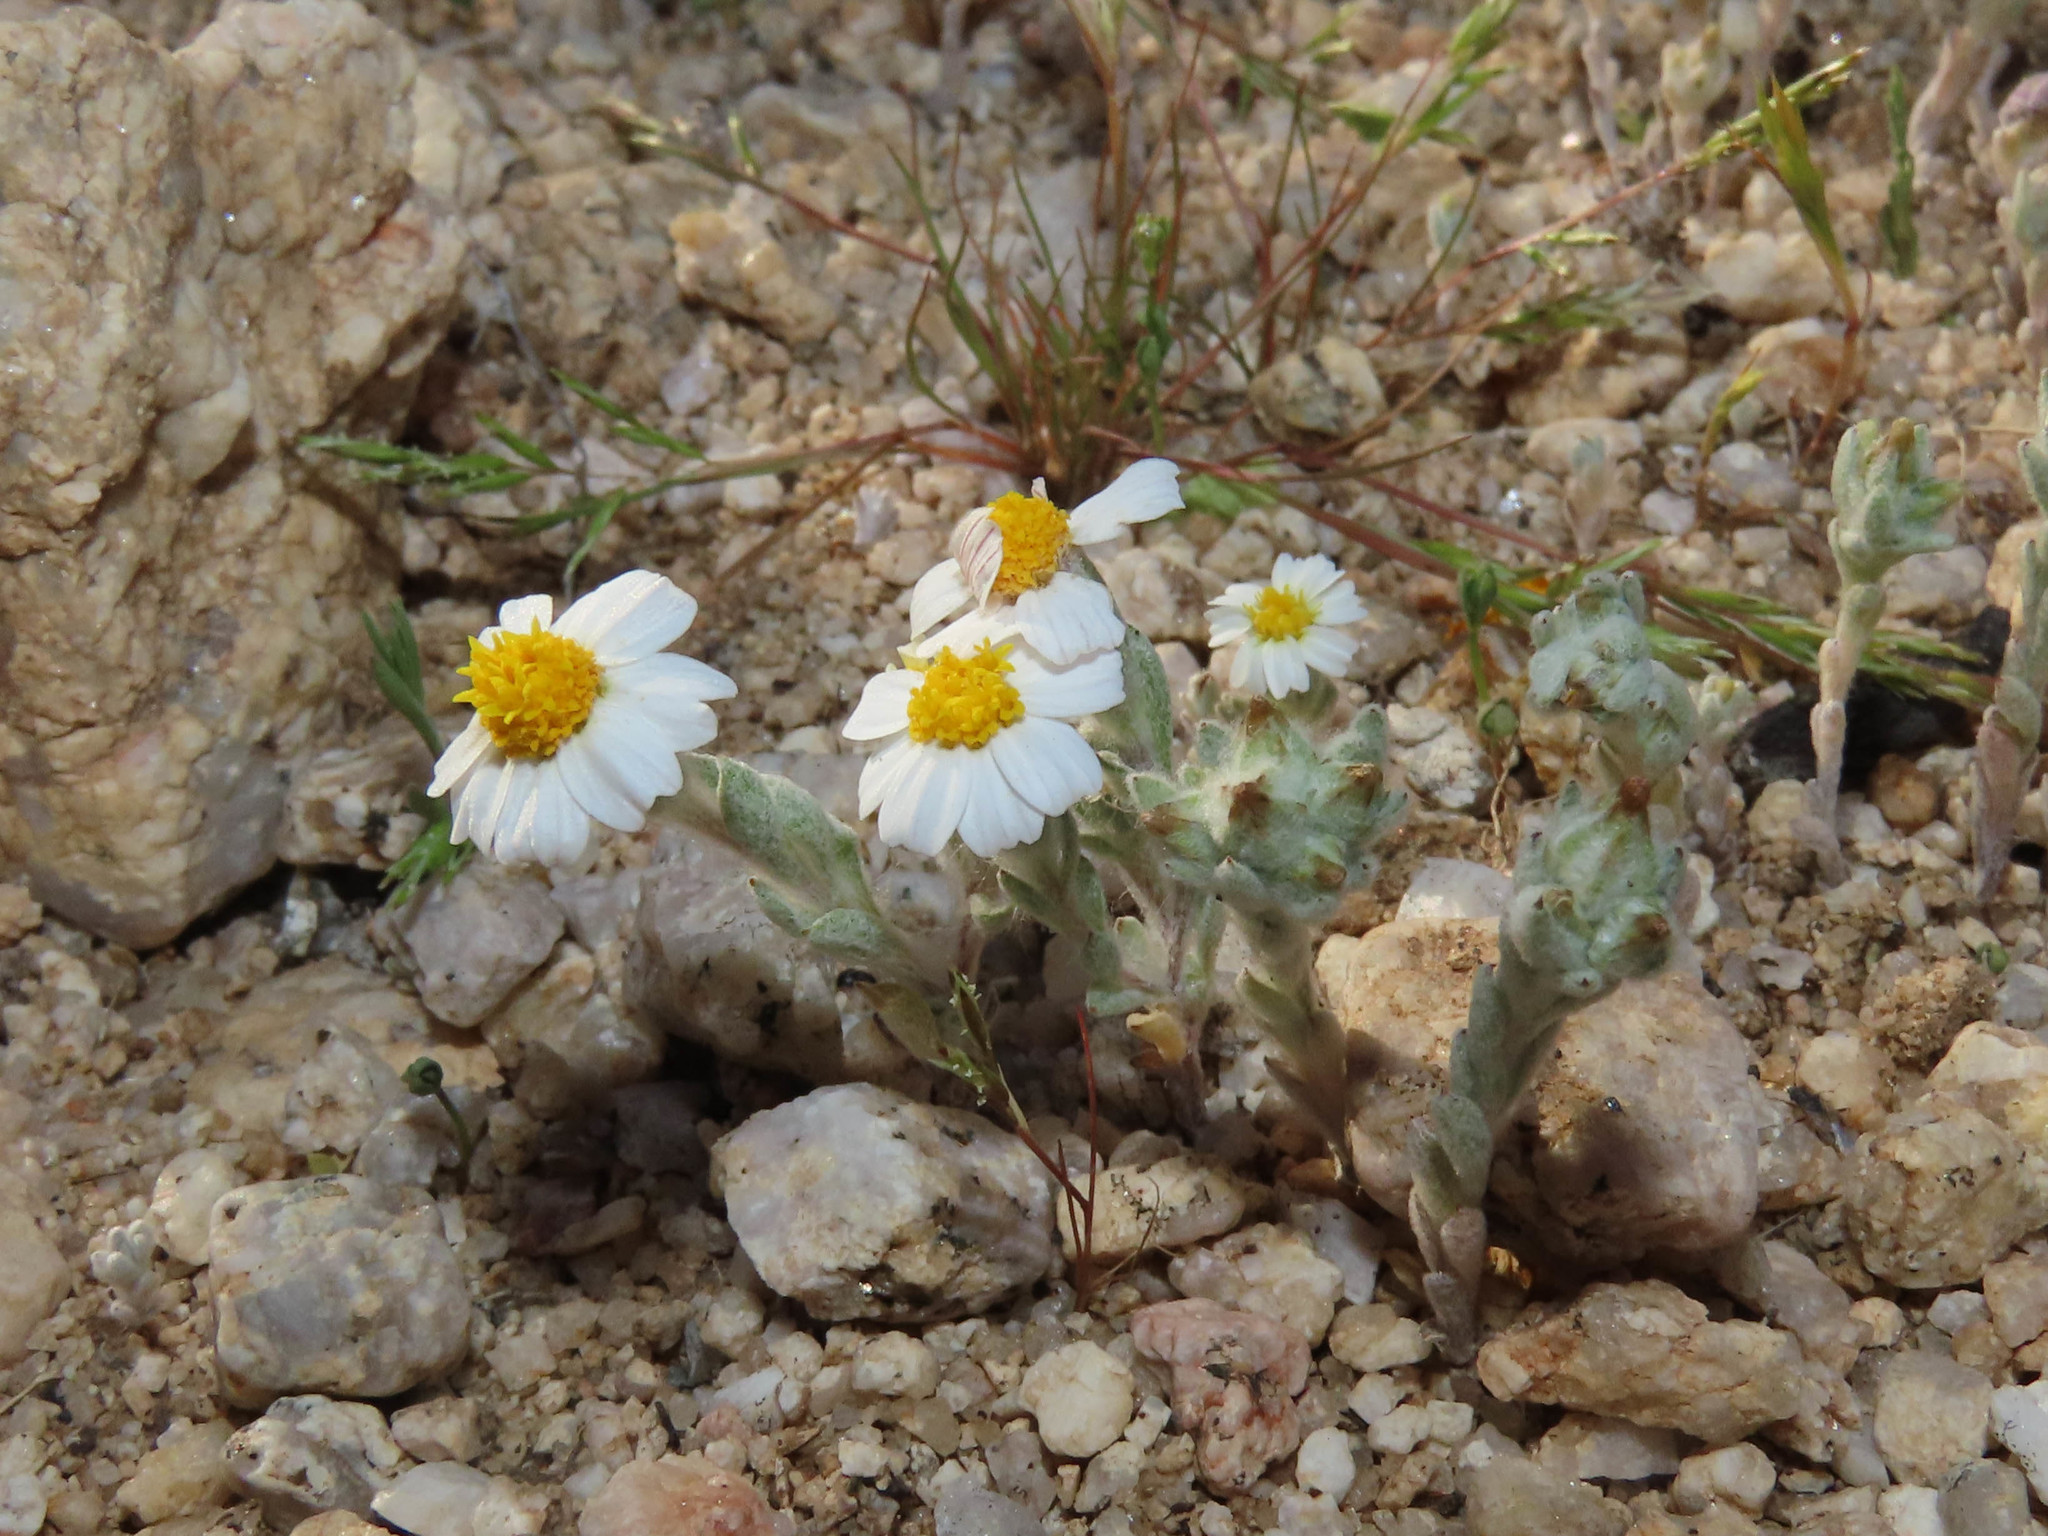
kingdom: Plantae
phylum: Tracheophyta
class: Magnoliopsida
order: Asterales
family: Asteraceae
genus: Eriophyllum
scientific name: Eriophyllum lanosum
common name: White easter-bonnets
